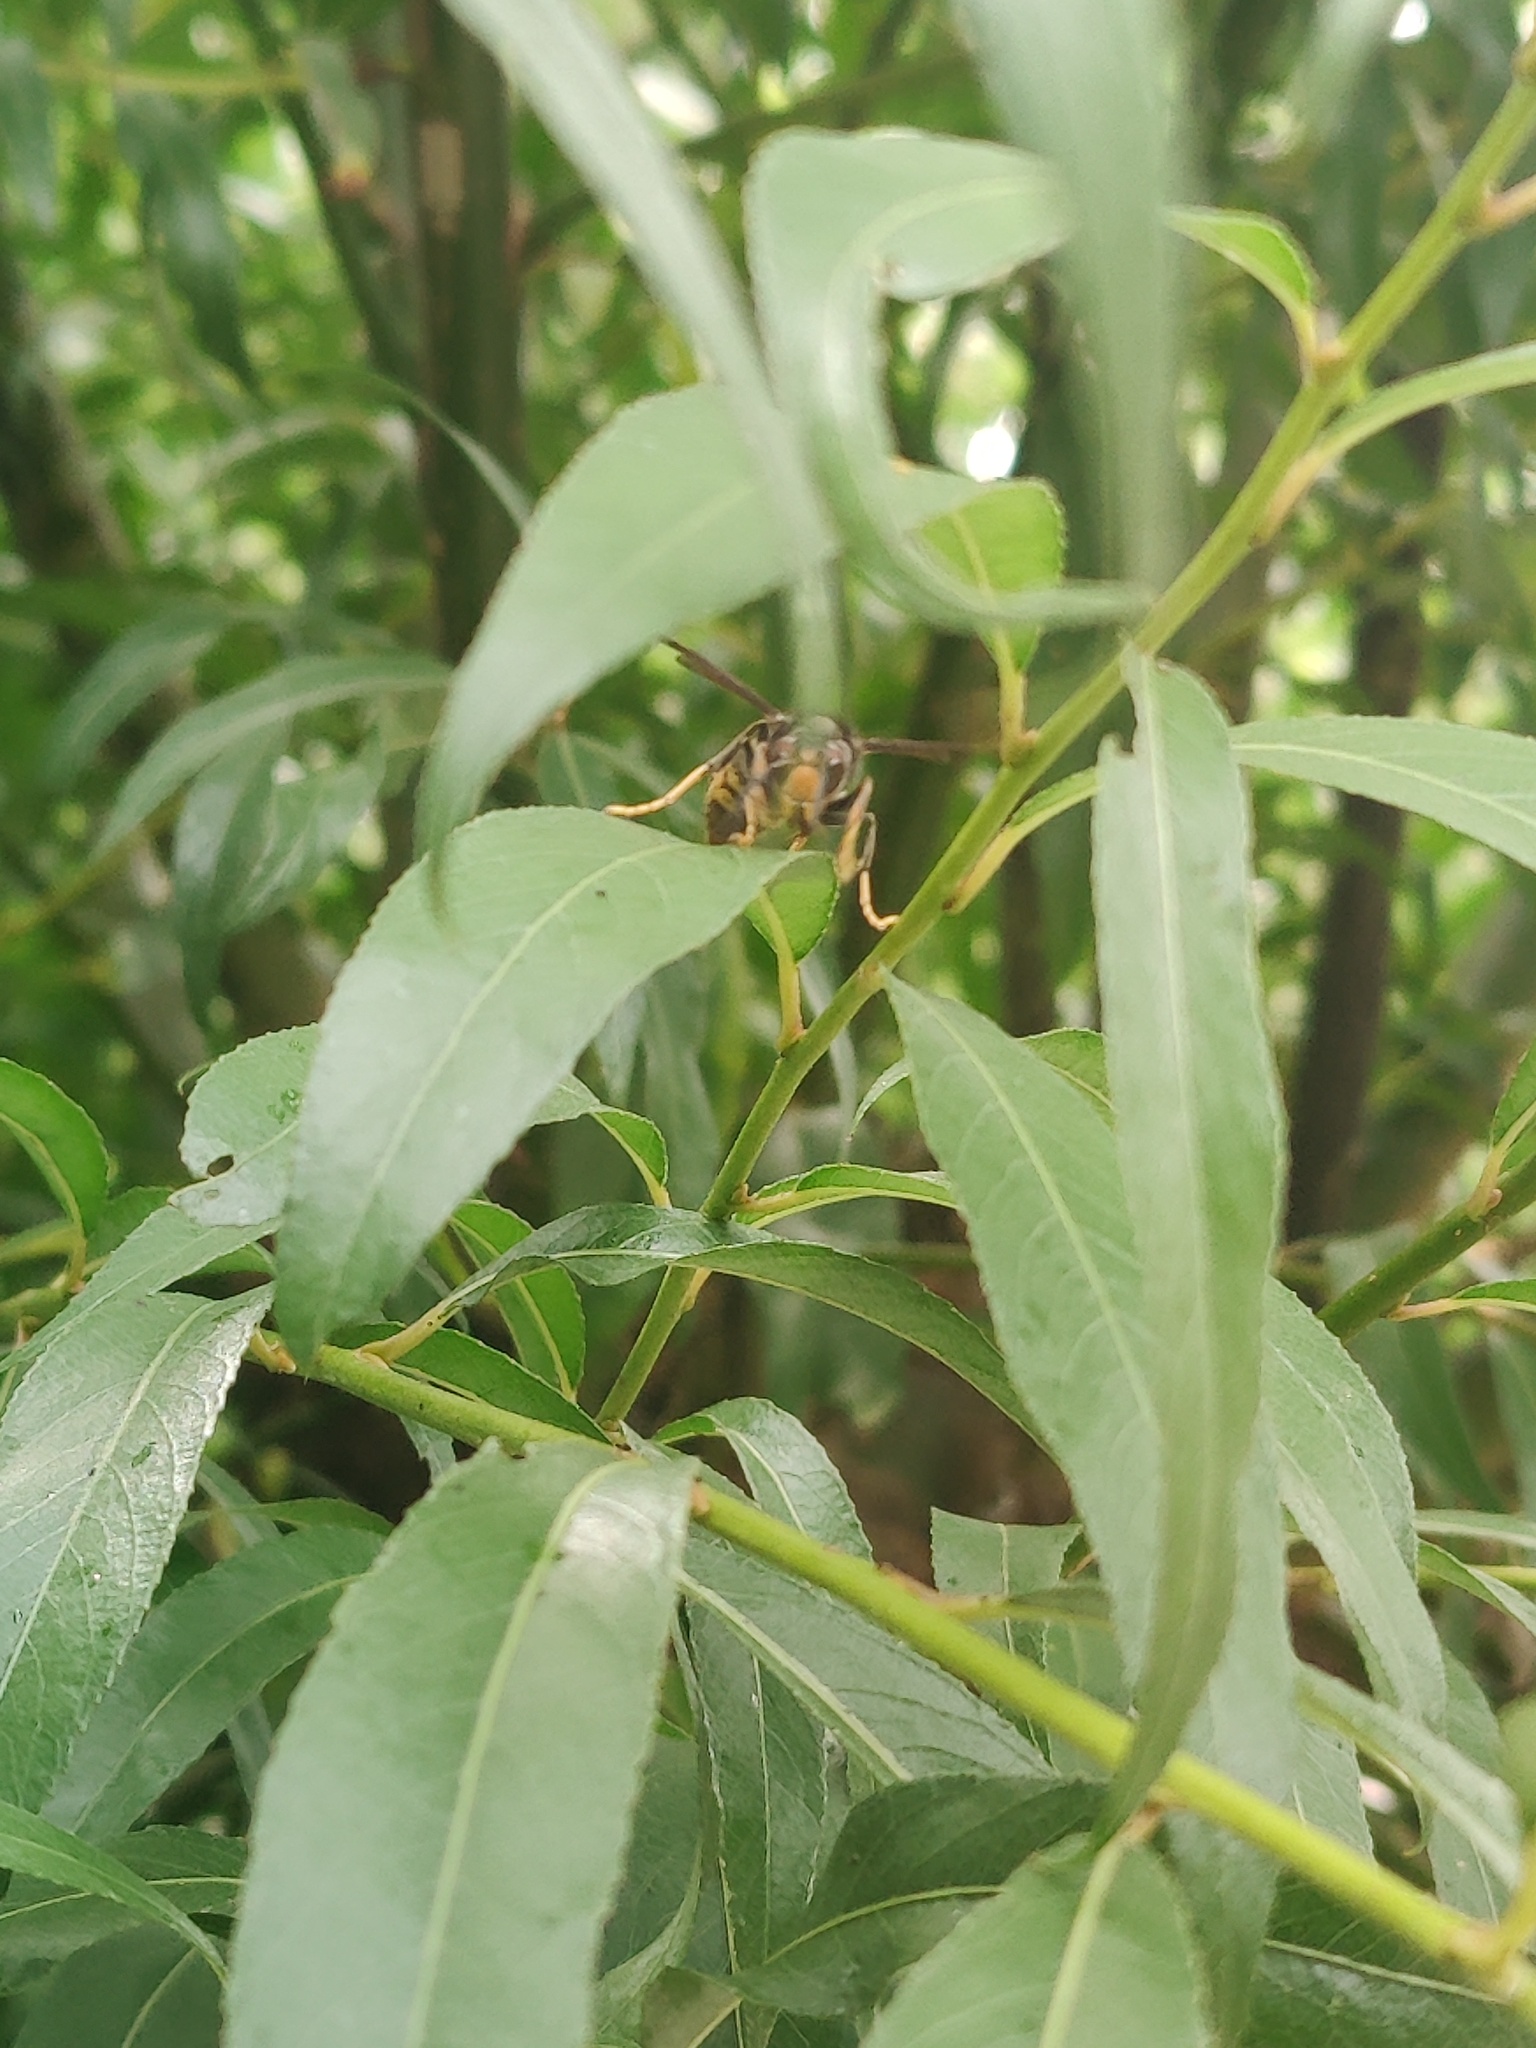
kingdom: Animalia
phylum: Arthropoda
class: Insecta
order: Hymenoptera
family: Vespidae
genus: Vespa
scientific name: Vespa velutina
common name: Asian hornet
